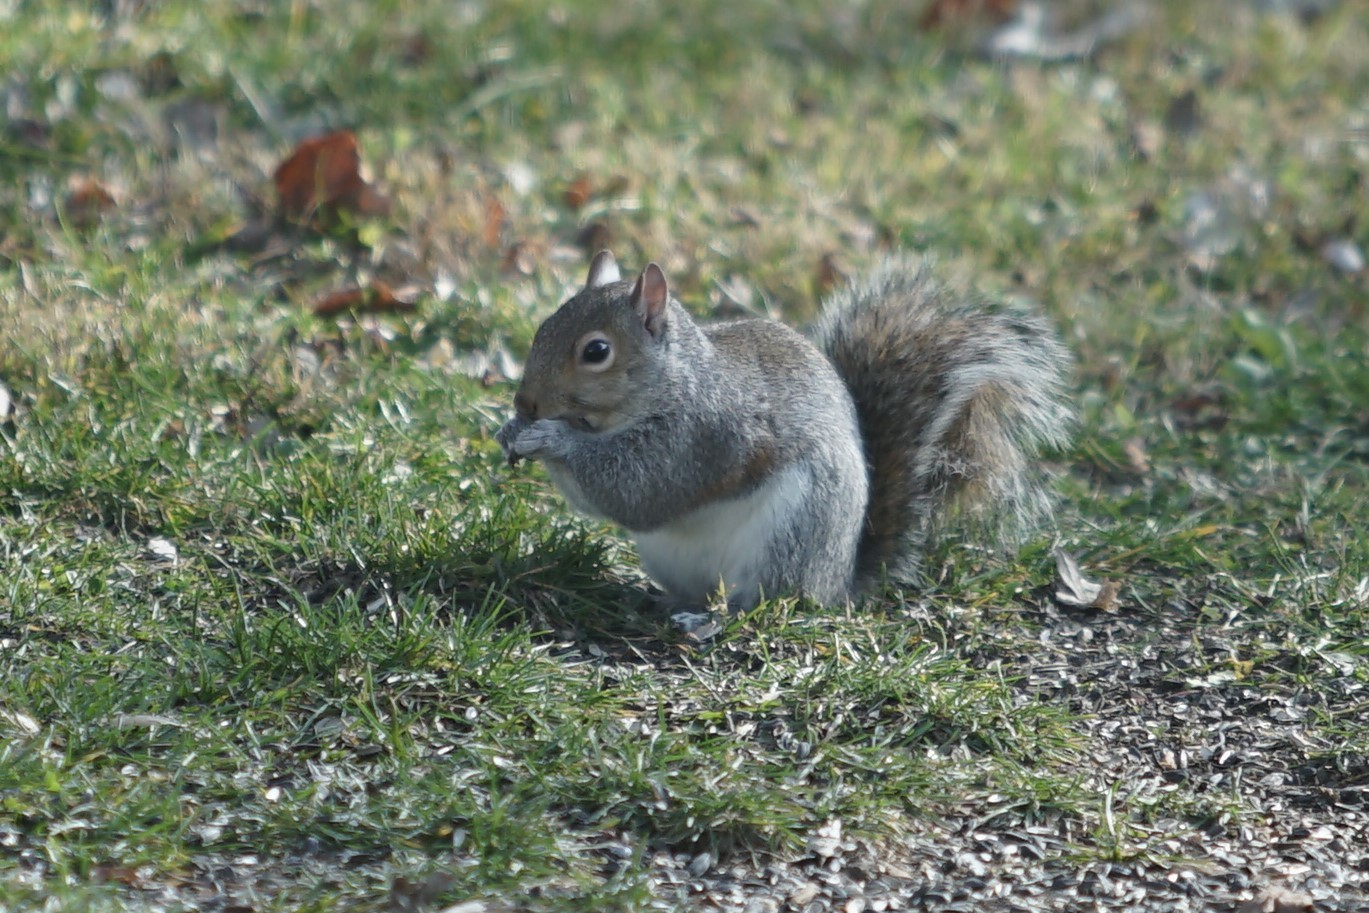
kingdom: Animalia
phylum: Chordata
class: Mammalia
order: Rodentia
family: Sciuridae
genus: Sciurus
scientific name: Sciurus carolinensis
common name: Eastern gray squirrel
